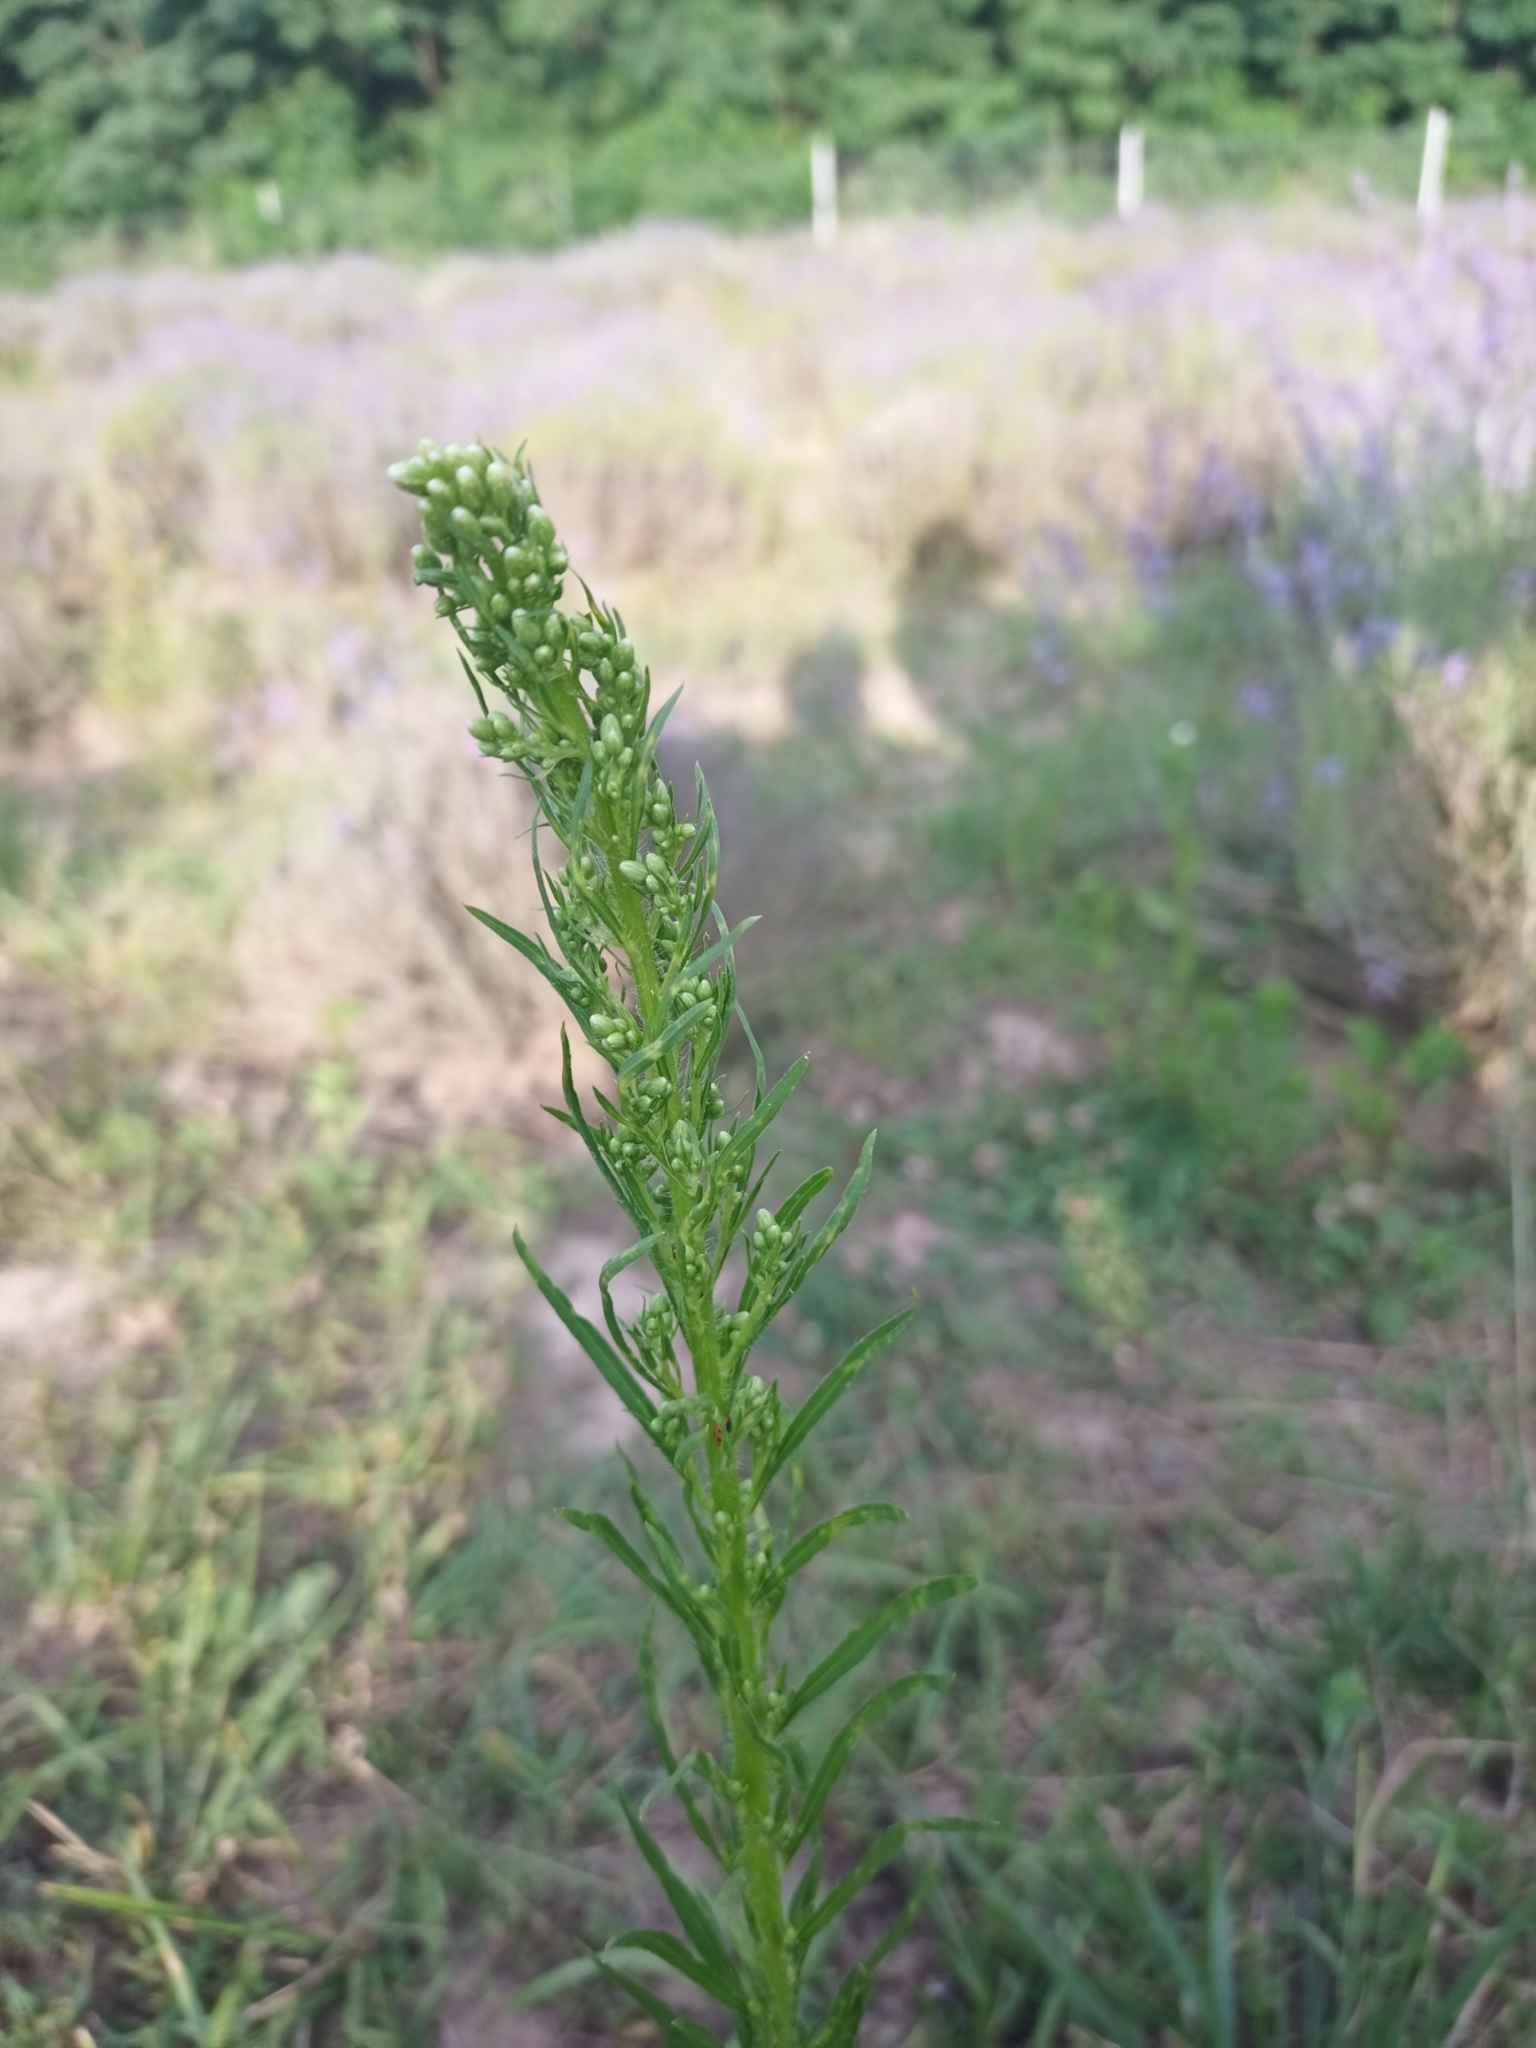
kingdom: Plantae
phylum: Tracheophyta
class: Magnoliopsida
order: Asterales
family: Asteraceae
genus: Erigeron
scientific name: Erigeron canadensis
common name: Canadian fleabane
